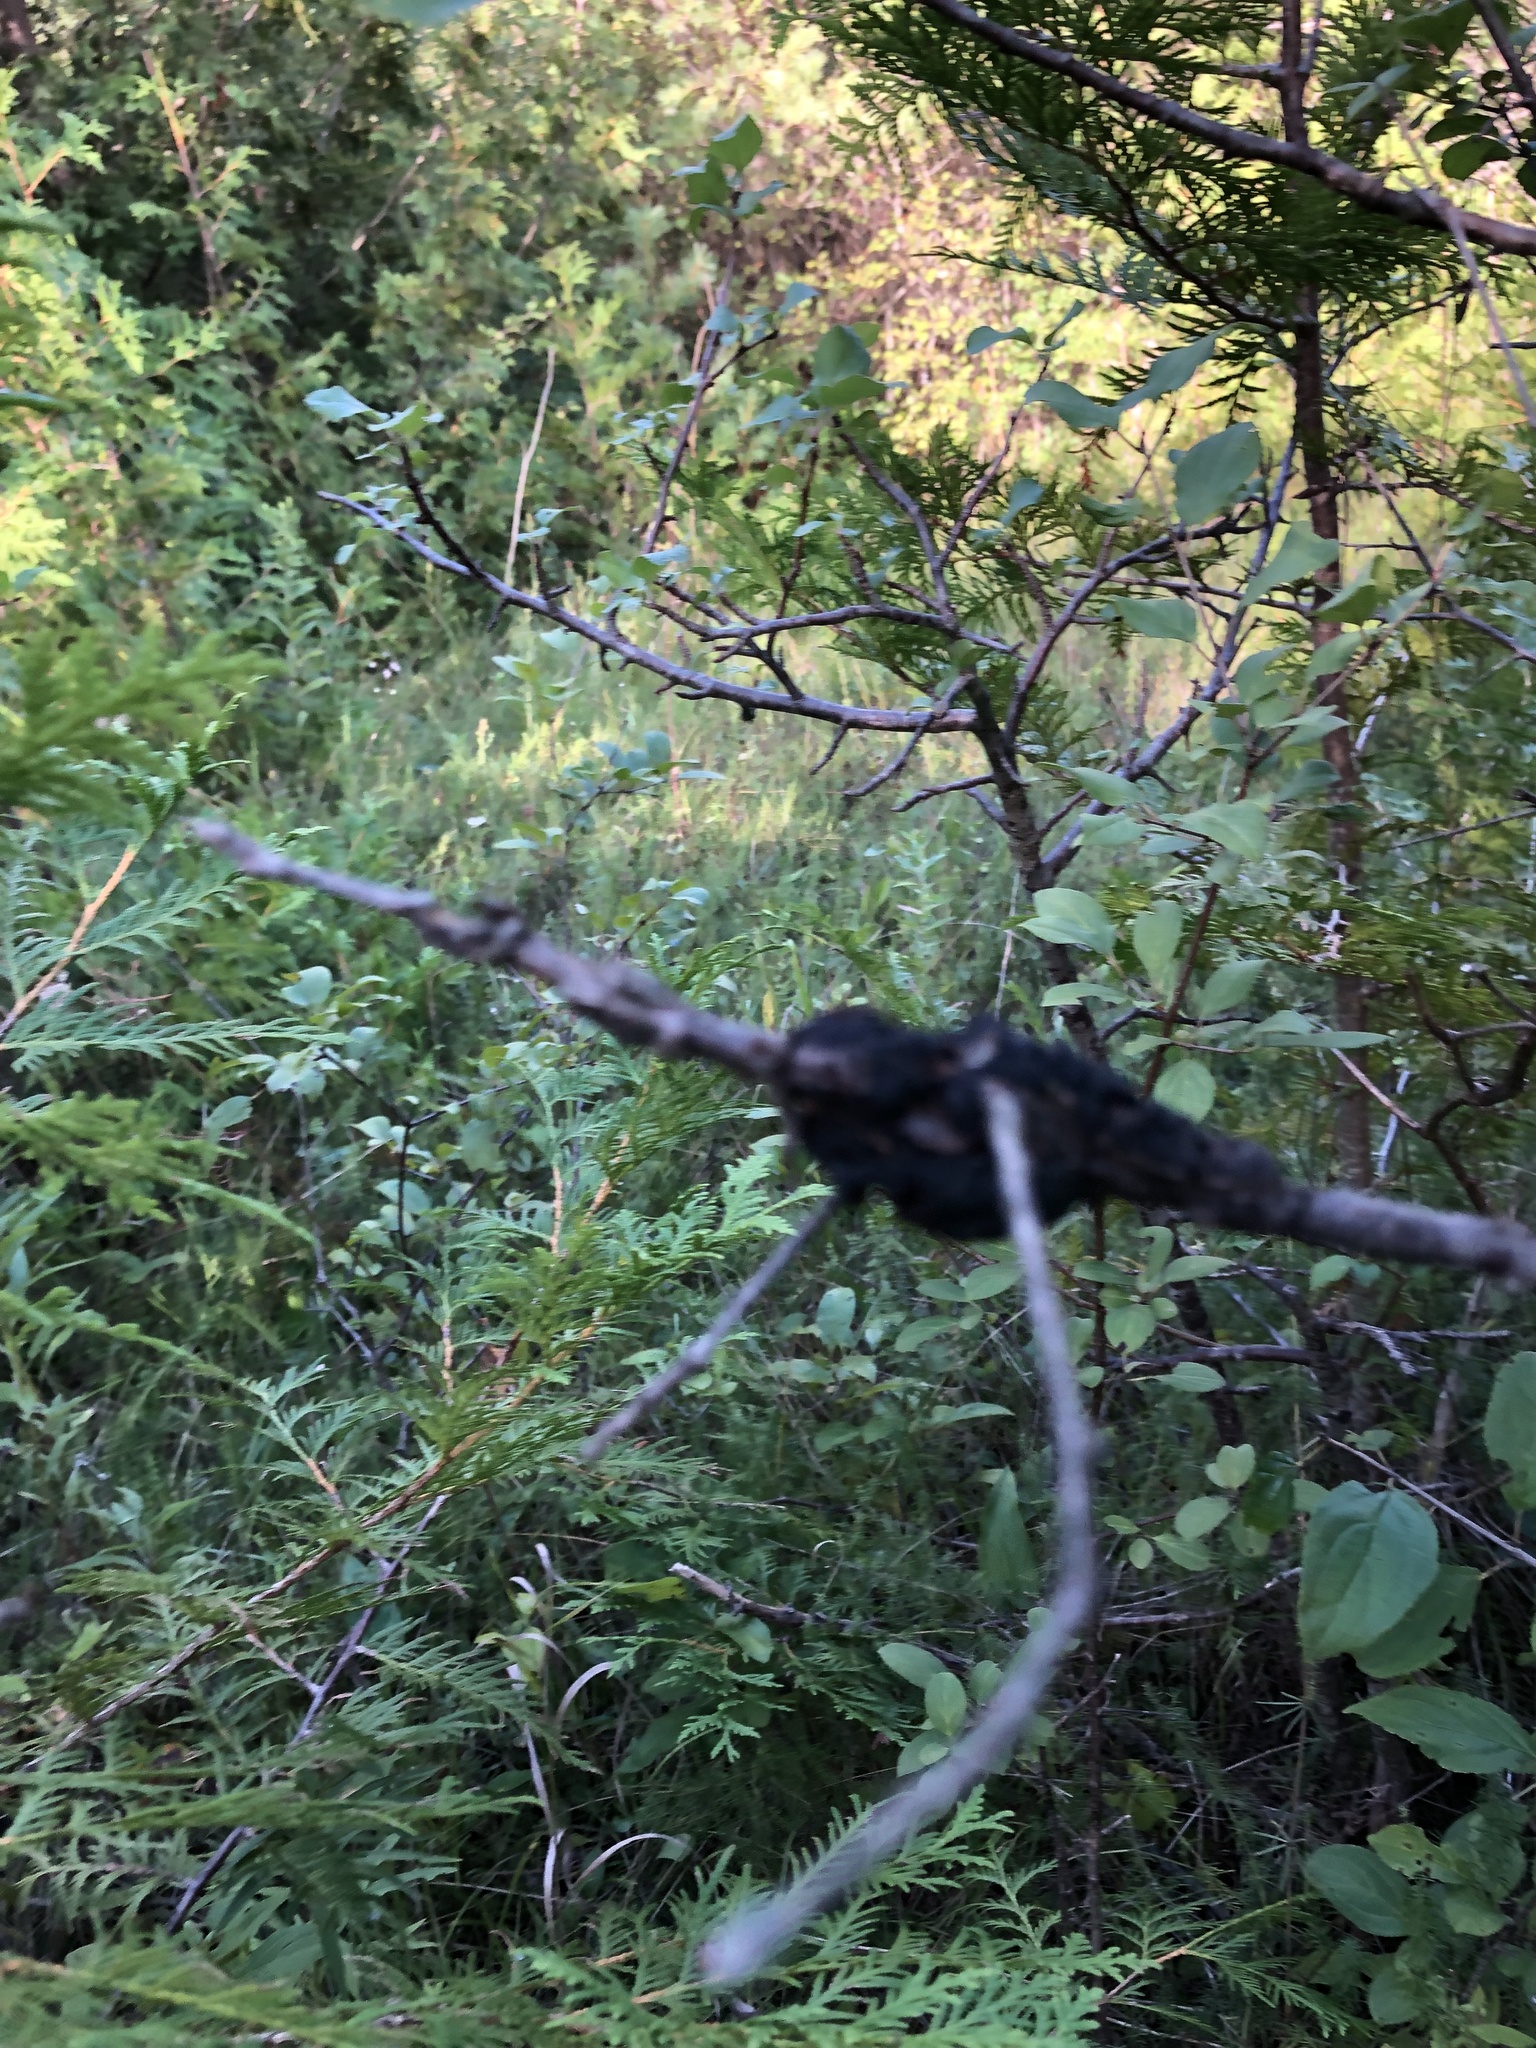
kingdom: Fungi
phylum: Ascomycota
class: Dothideomycetes
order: Venturiales
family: Venturiaceae
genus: Apiosporina
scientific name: Apiosporina morbosa
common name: Black knot
